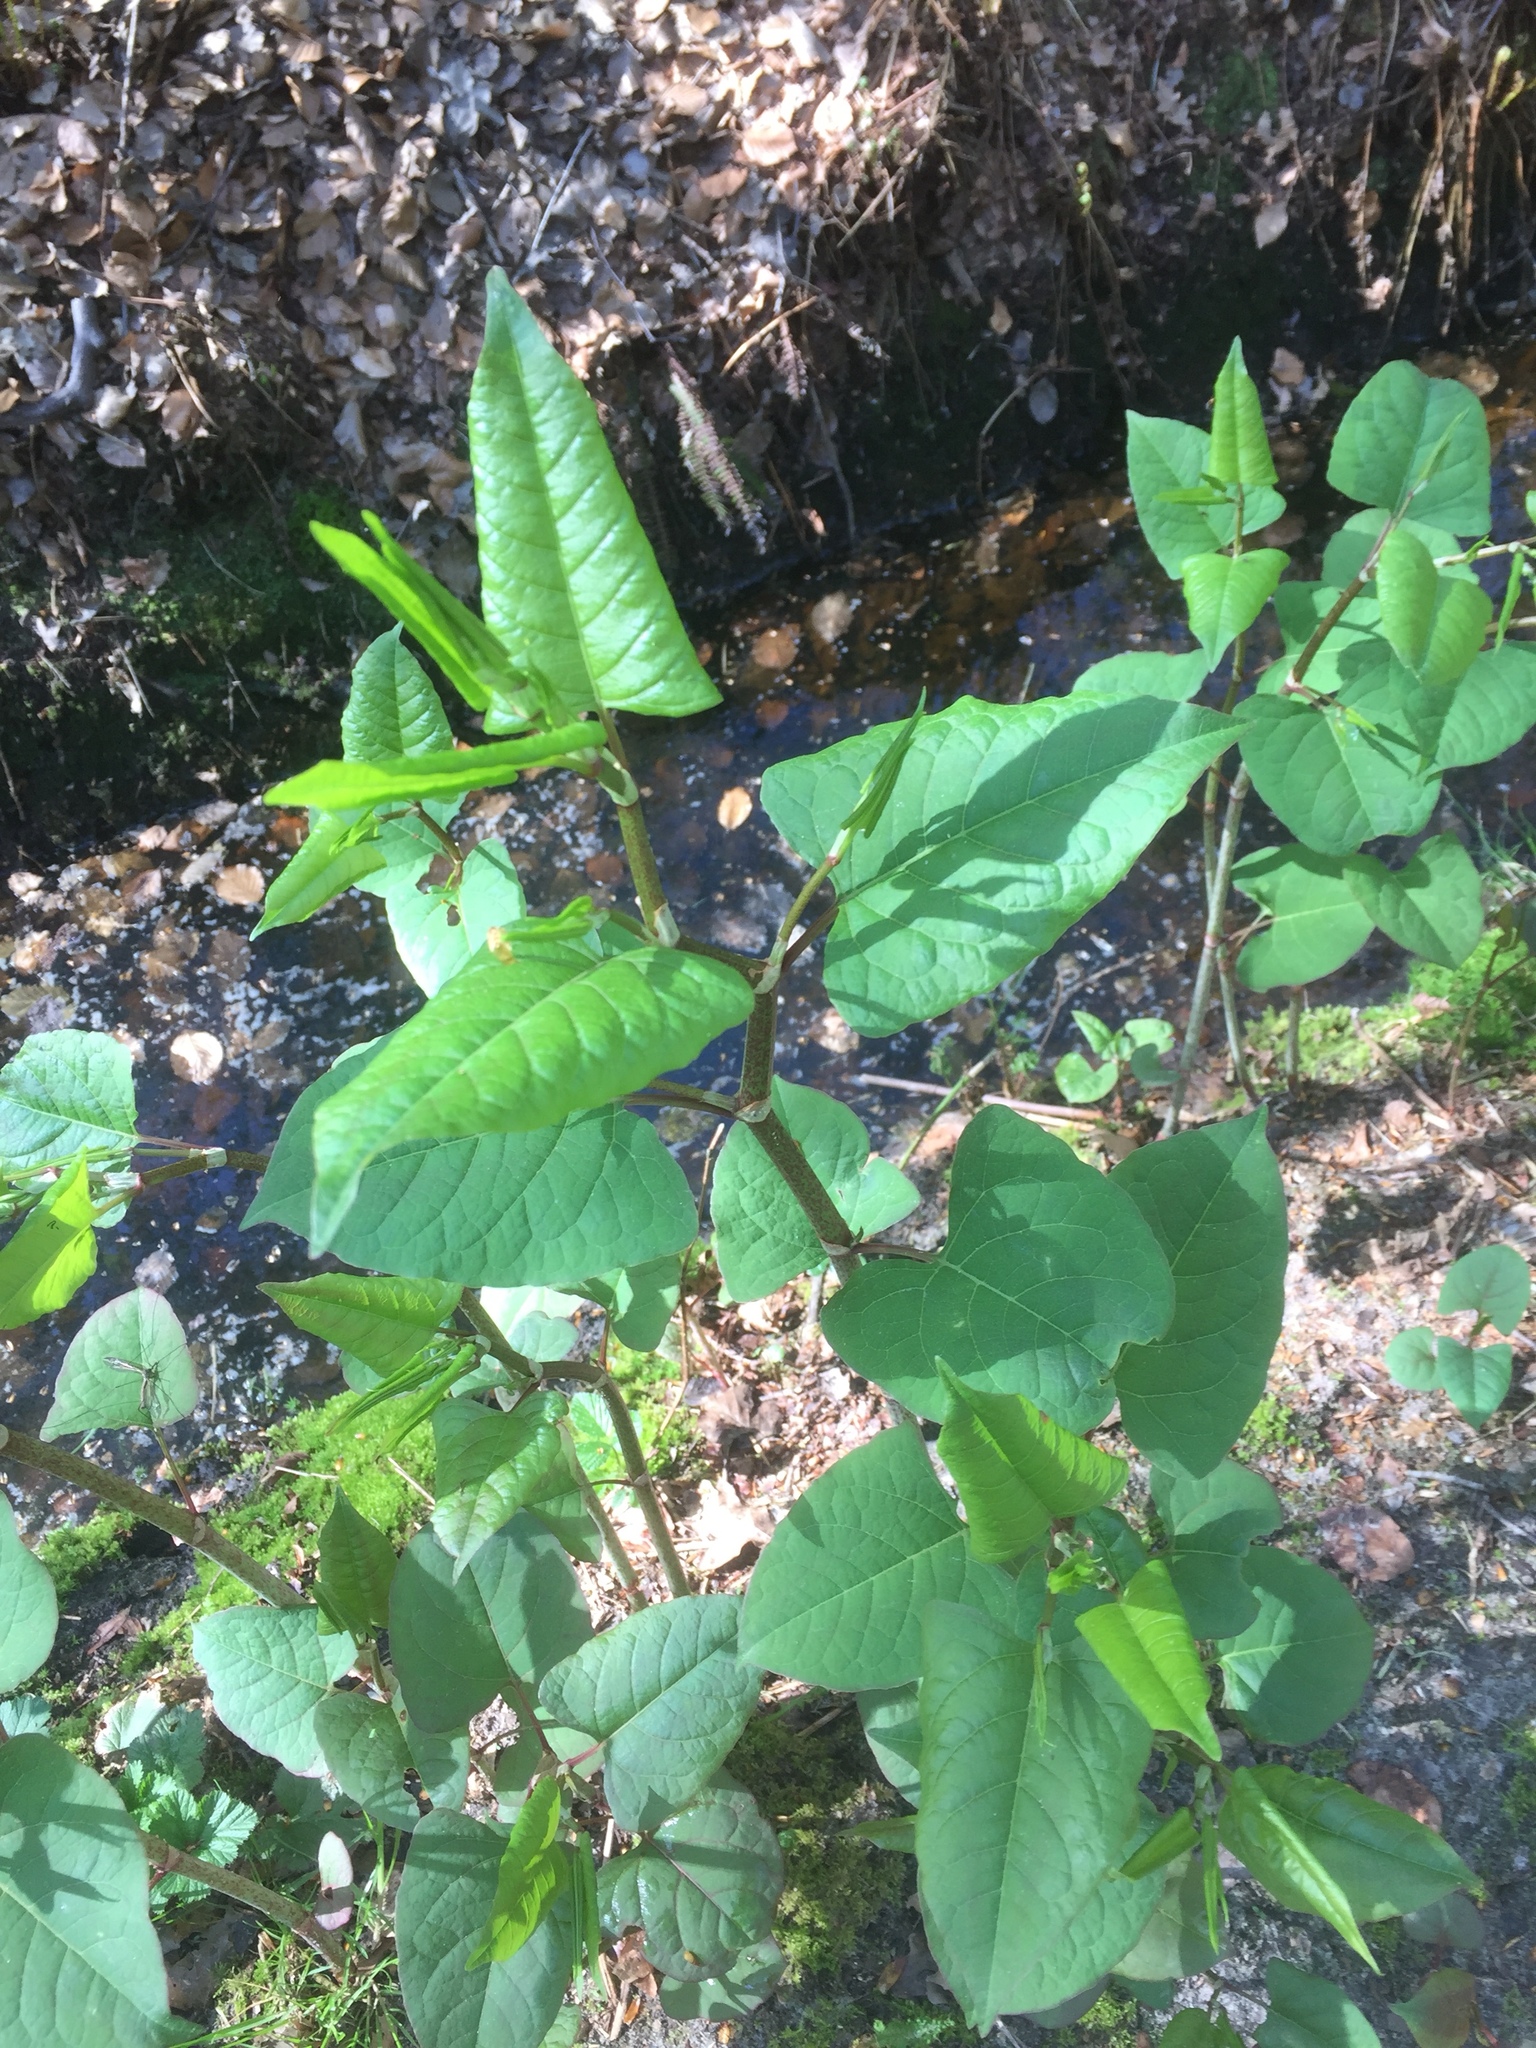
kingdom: Plantae
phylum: Tracheophyta
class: Magnoliopsida
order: Caryophyllales
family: Polygonaceae
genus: Reynoutria
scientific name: Reynoutria japonica
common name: Japanese knotweed
